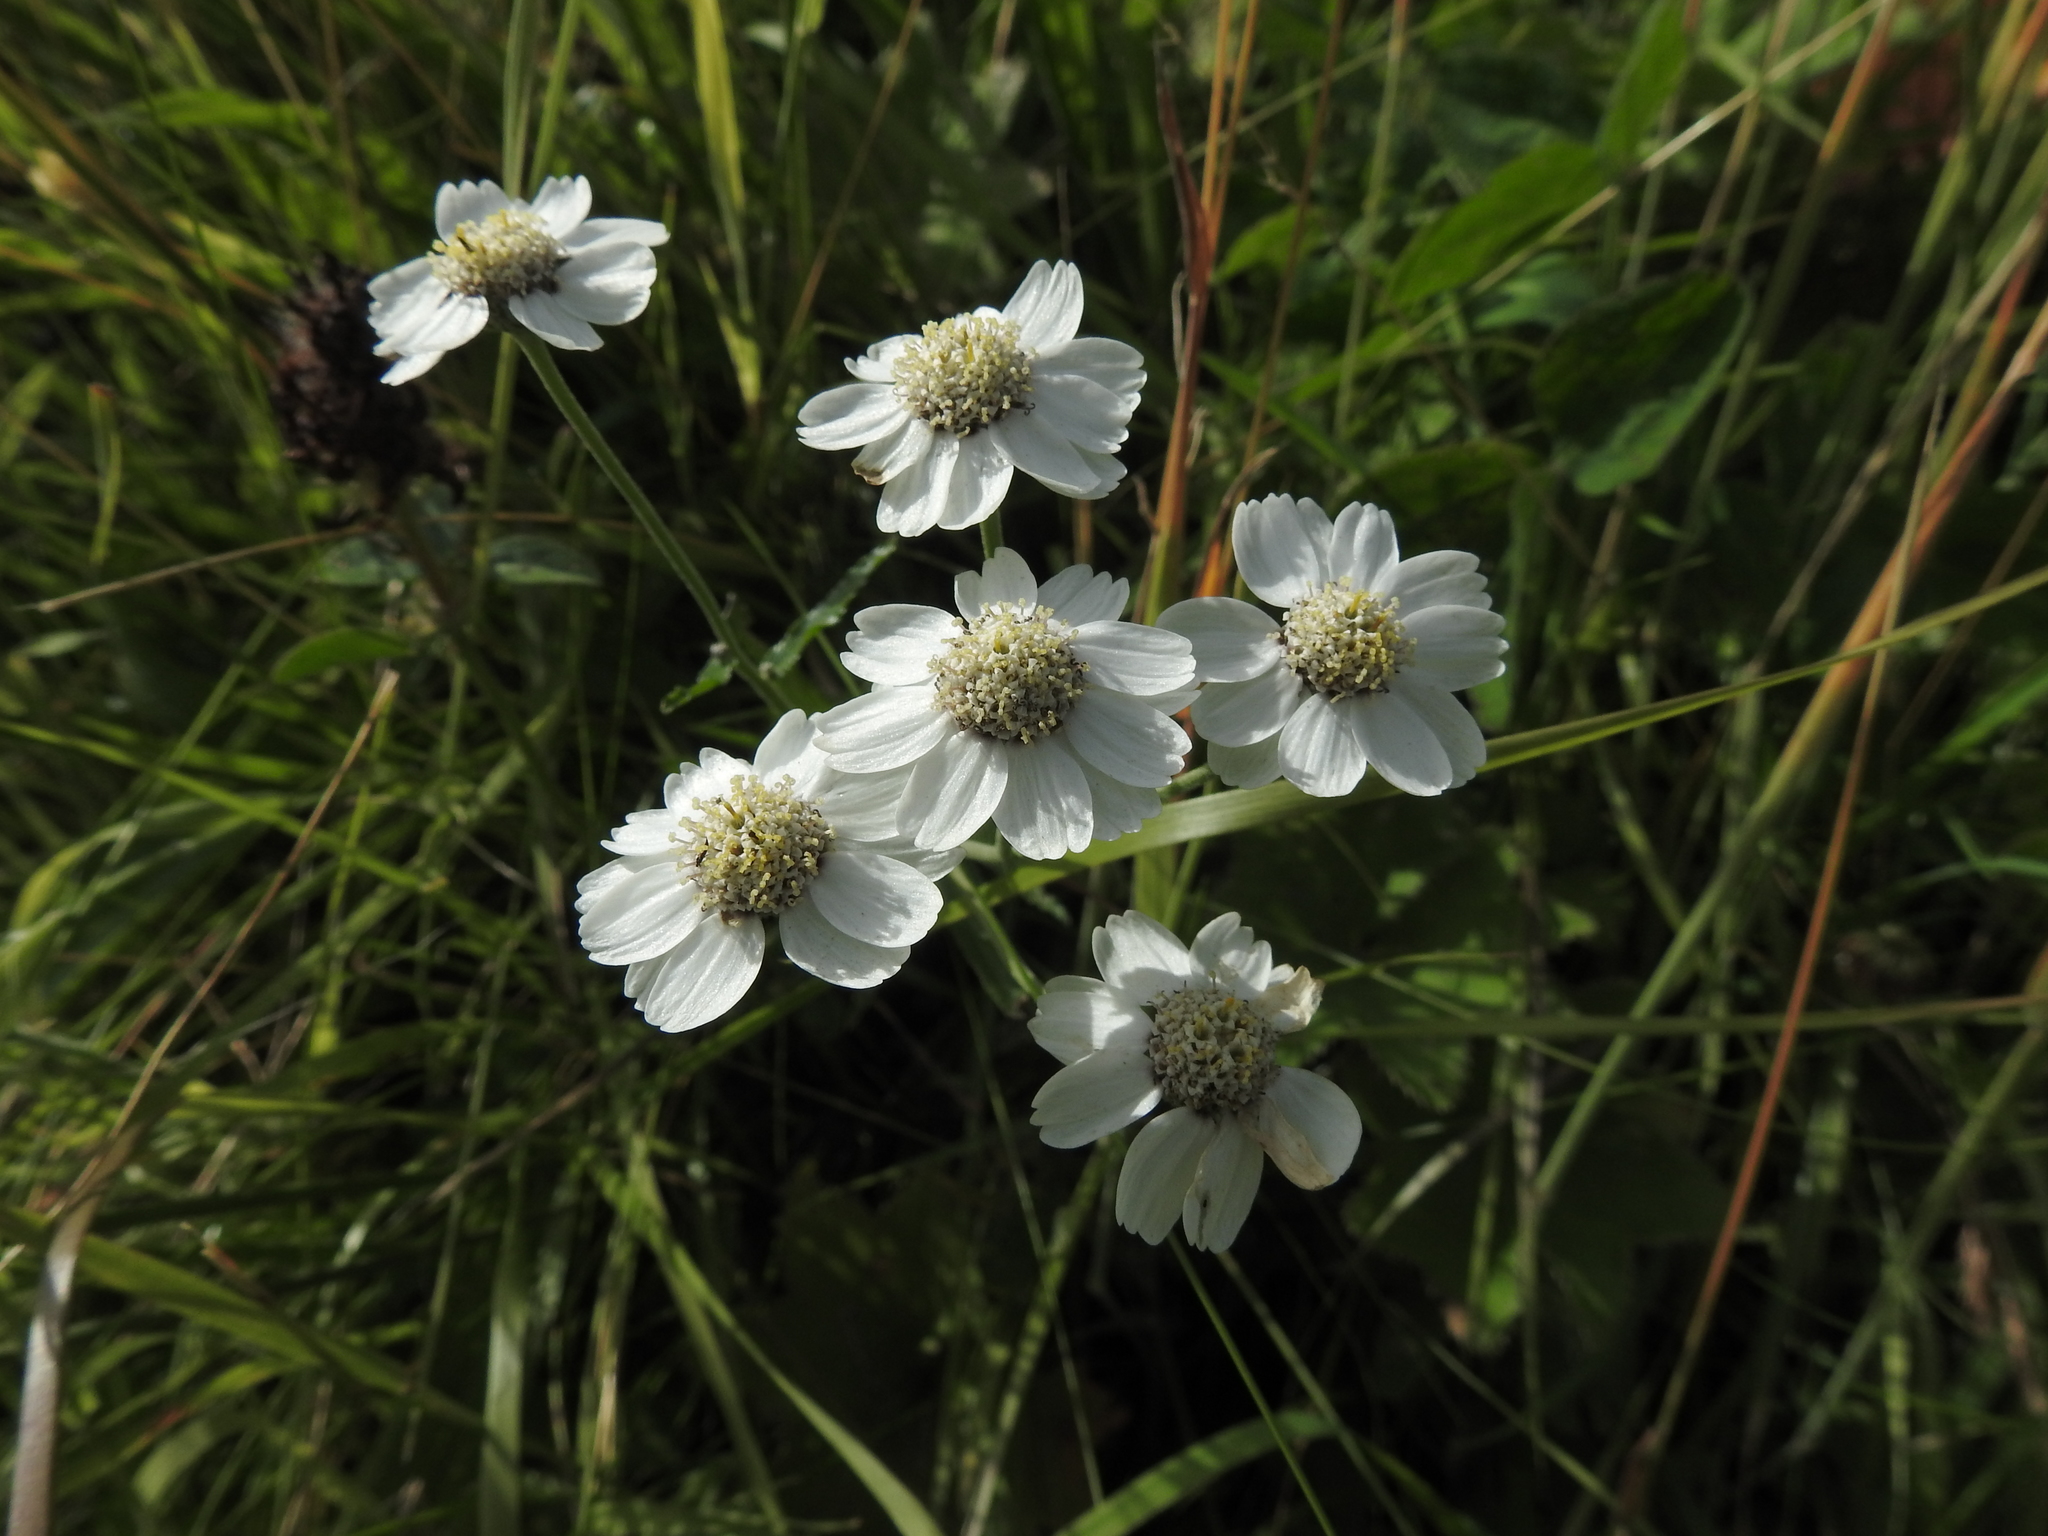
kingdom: Plantae
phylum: Tracheophyta
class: Magnoliopsida
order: Asterales
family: Asteraceae
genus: Achillea
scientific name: Achillea ptarmica
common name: Sneezeweed
